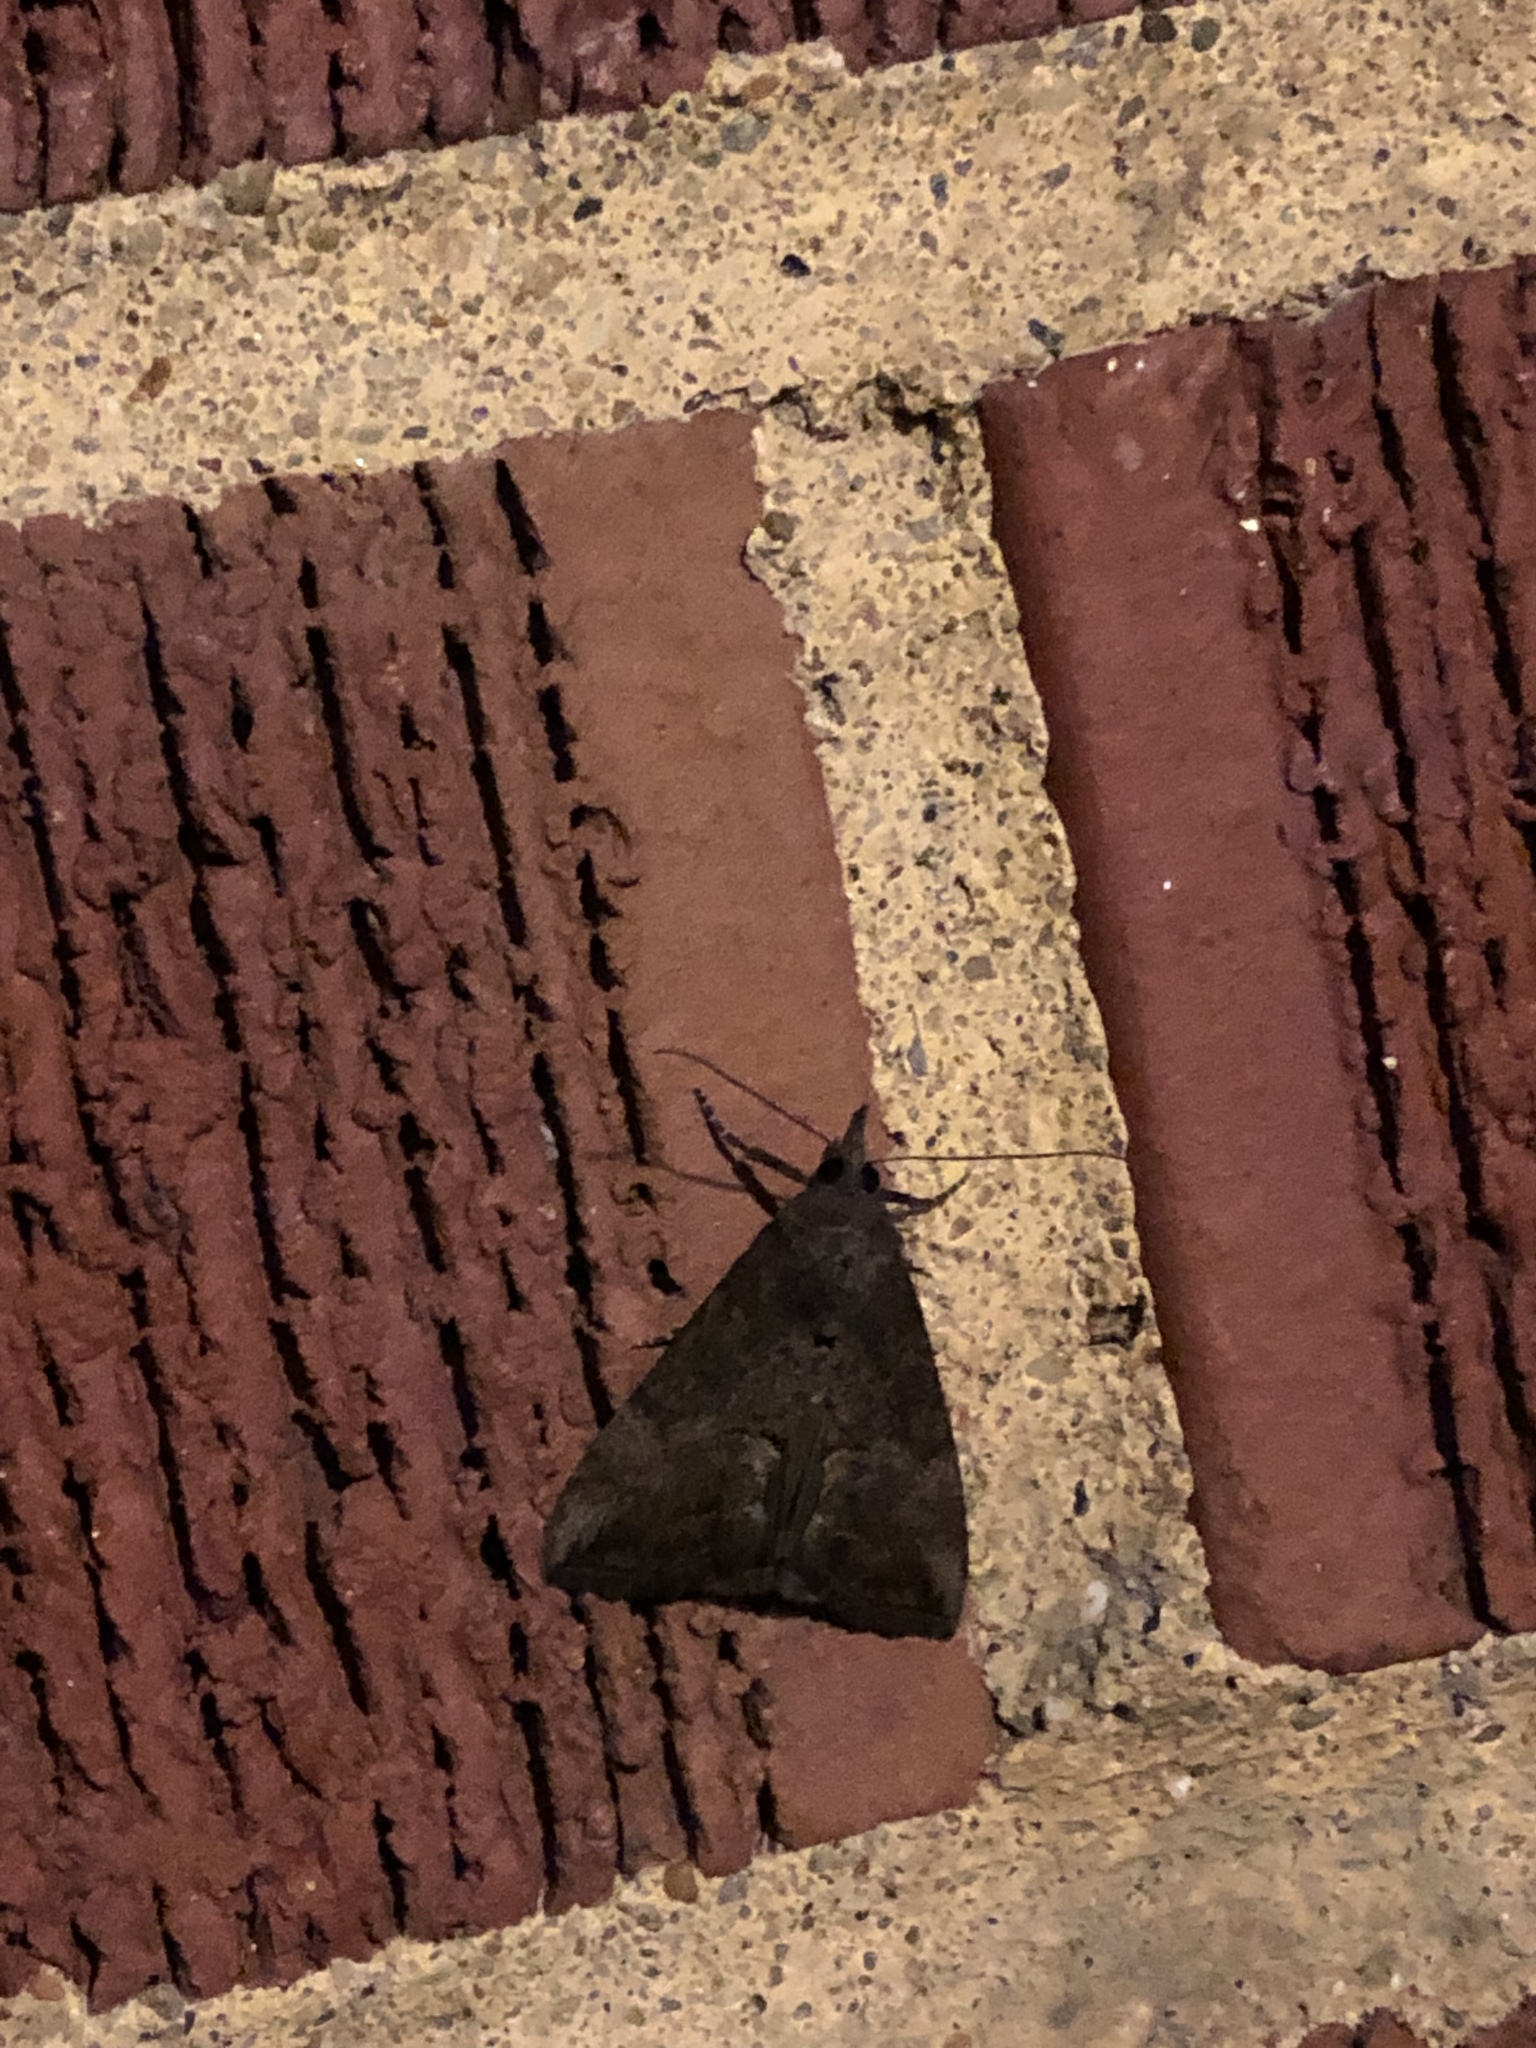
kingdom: Animalia
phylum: Arthropoda
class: Insecta
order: Lepidoptera
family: Erebidae
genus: Hypena
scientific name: Hypena scabra
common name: Green cloverworm
